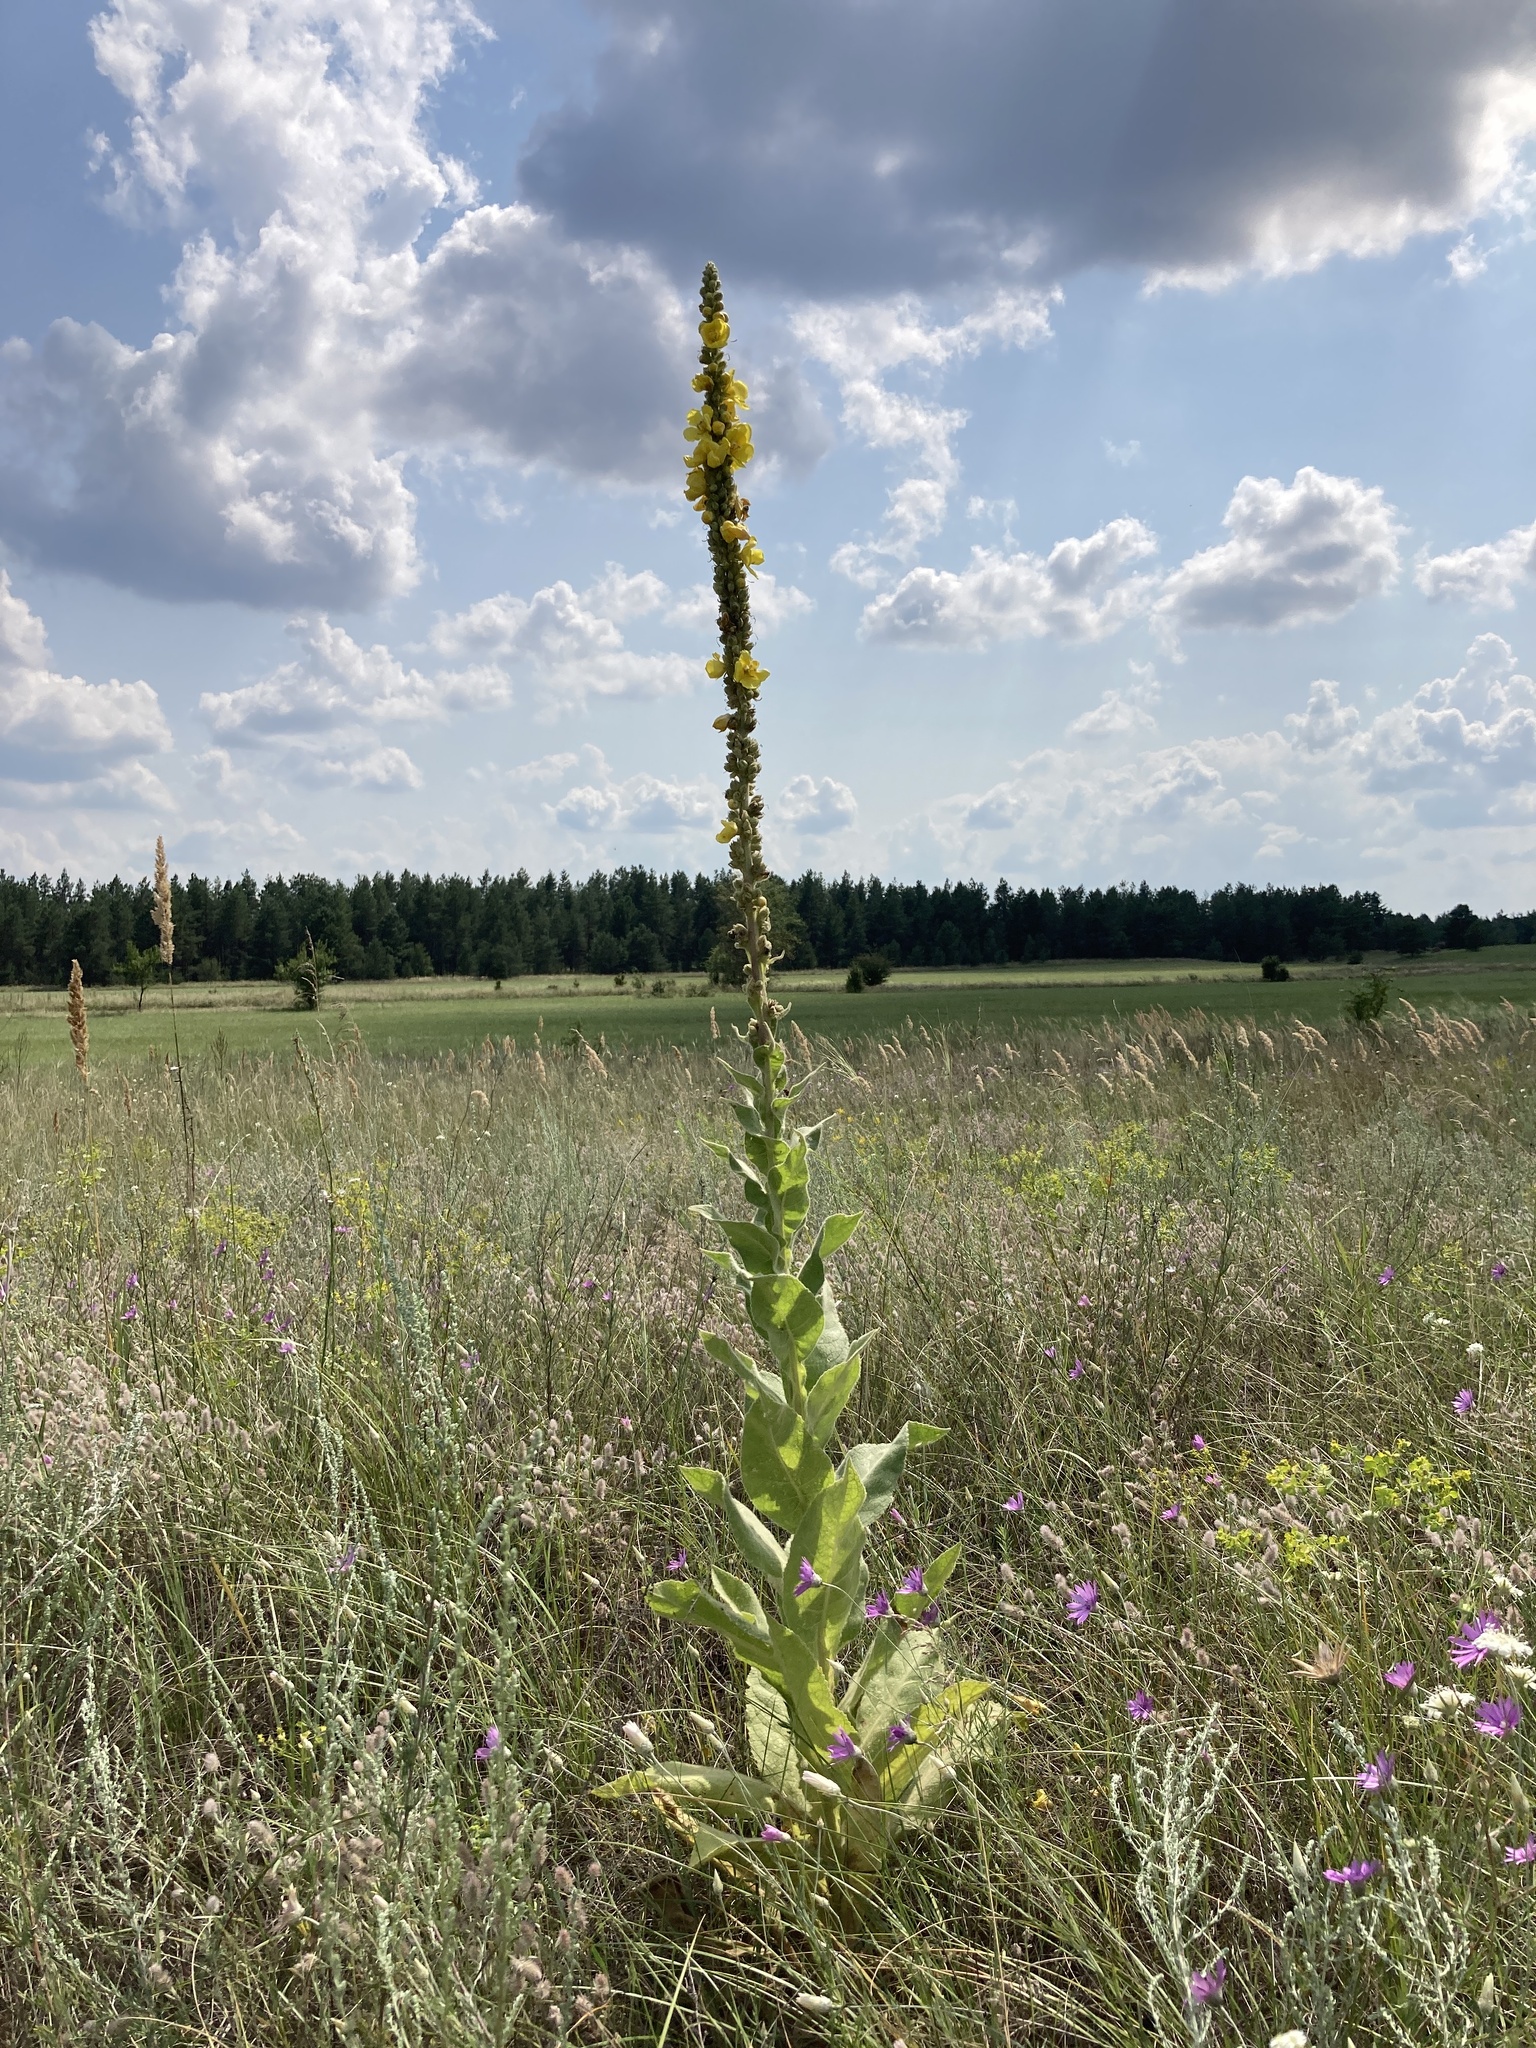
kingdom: Plantae
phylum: Tracheophyta
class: Magnoliopsida
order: Lamiales
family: Scrophulariaceae
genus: Verbascum
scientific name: Verbascum densiflorum
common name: Dense-flowered mullein
